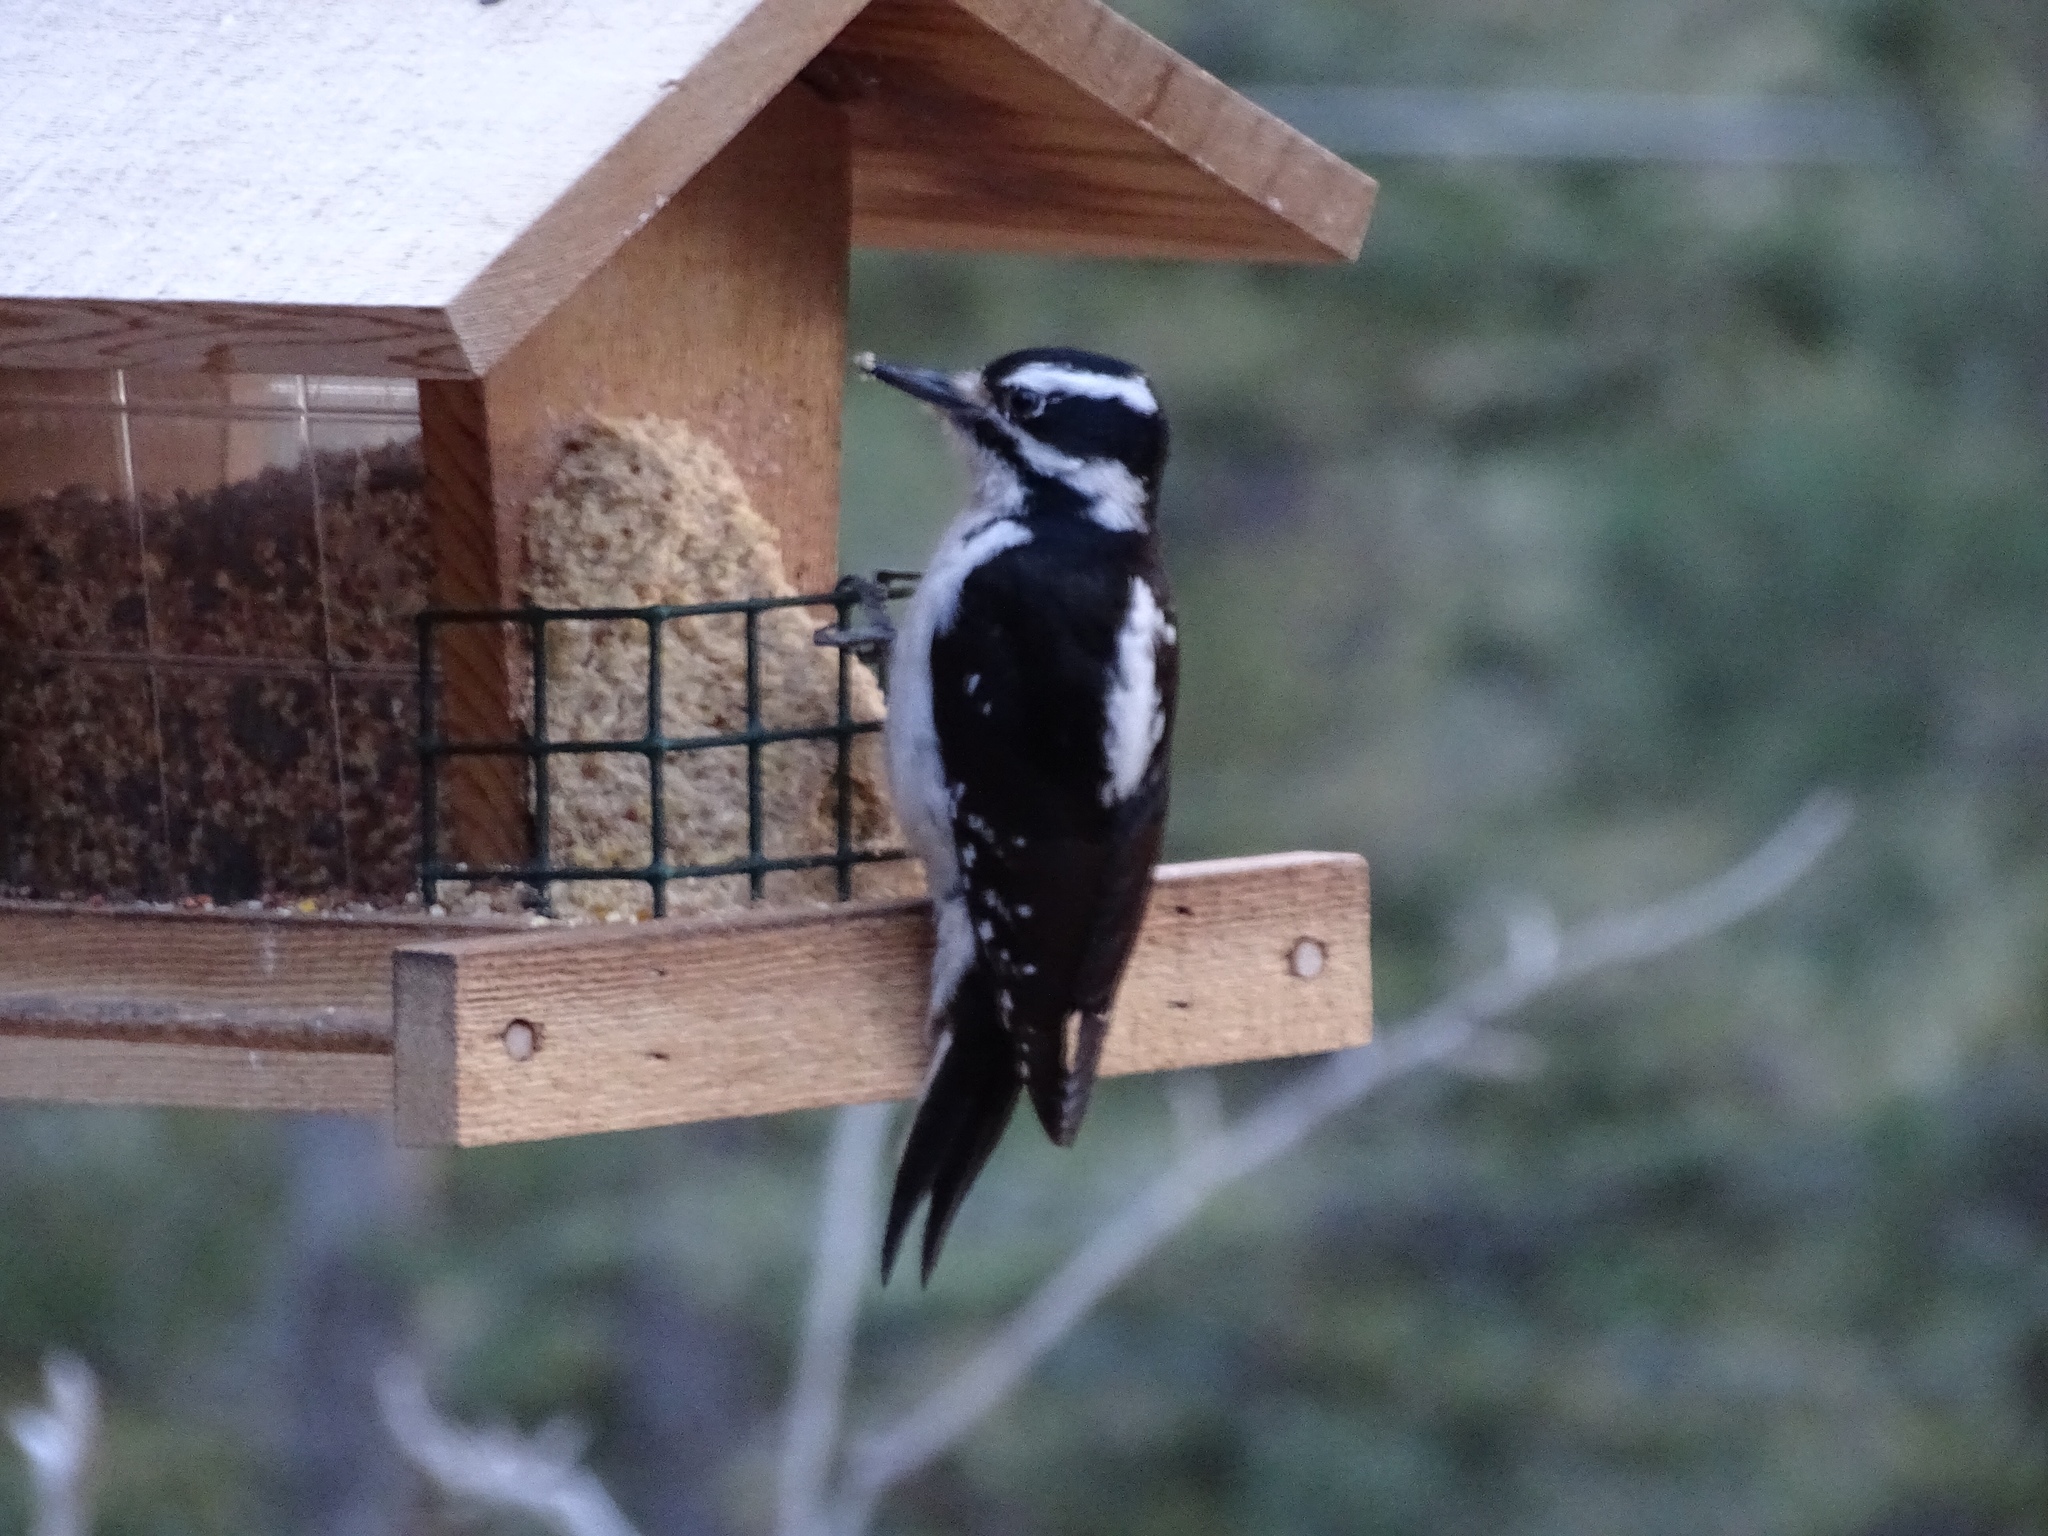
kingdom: Animalia
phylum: Chordata
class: Aves
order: Piciformes
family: Picidae
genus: Leuconotopicus
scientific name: Leuconotopicus villosus
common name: Hairy woodpecker
